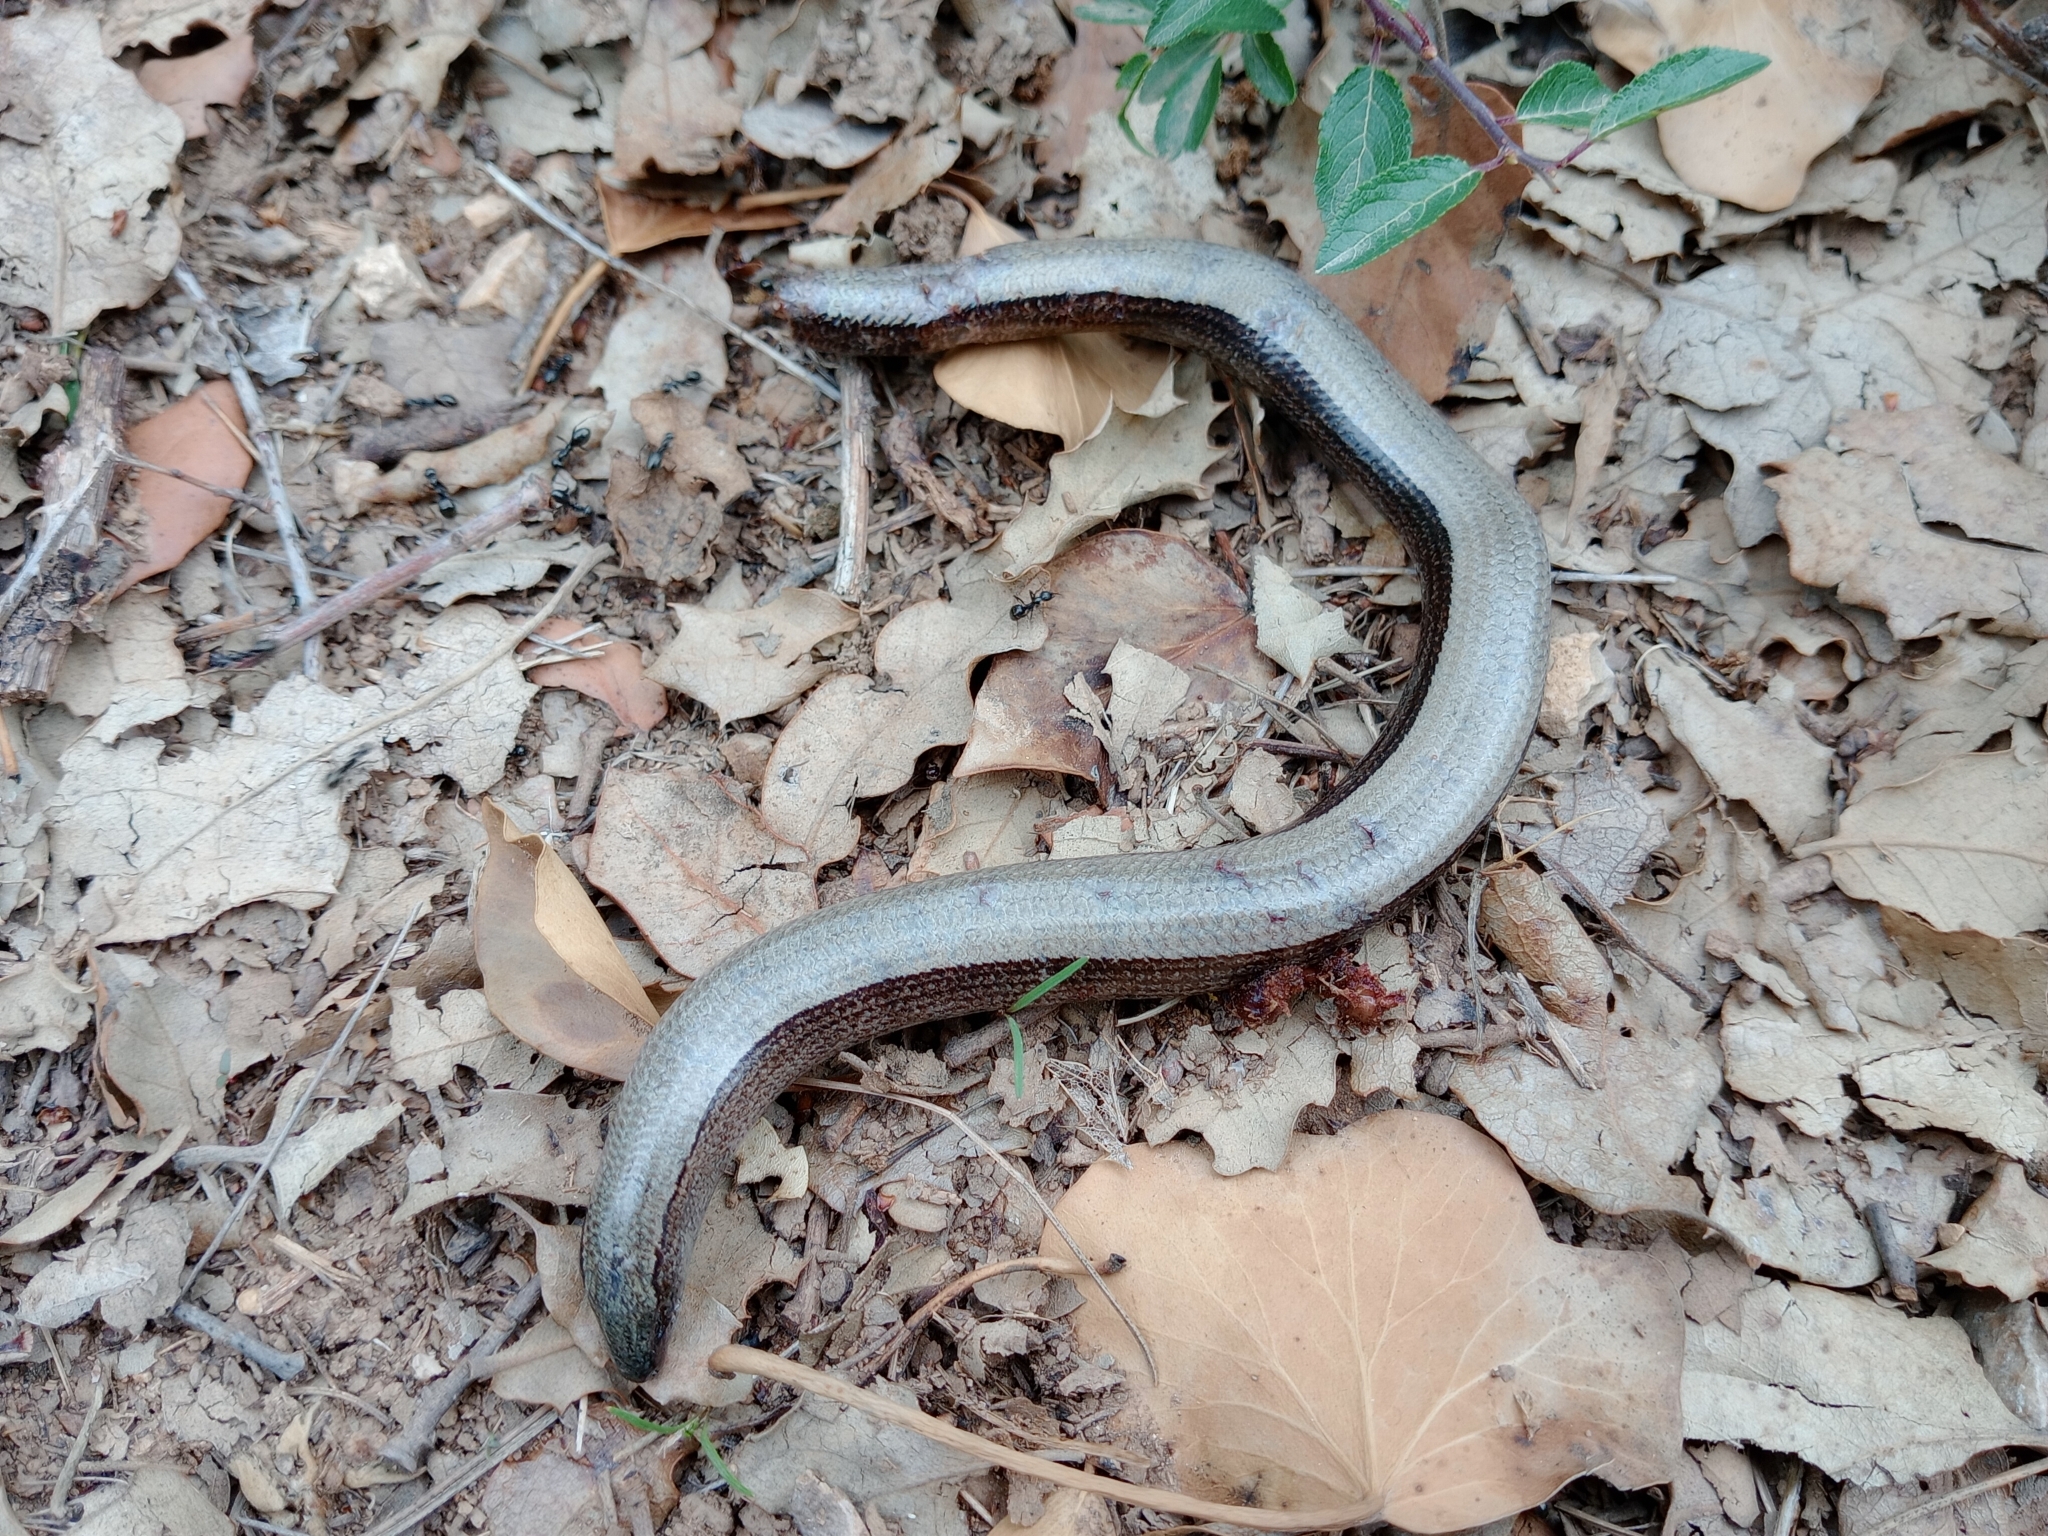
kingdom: Animalia
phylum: Chordata
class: Squamata
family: Anguidae
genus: Anguis
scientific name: Anguis fragilis
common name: Slow worm
